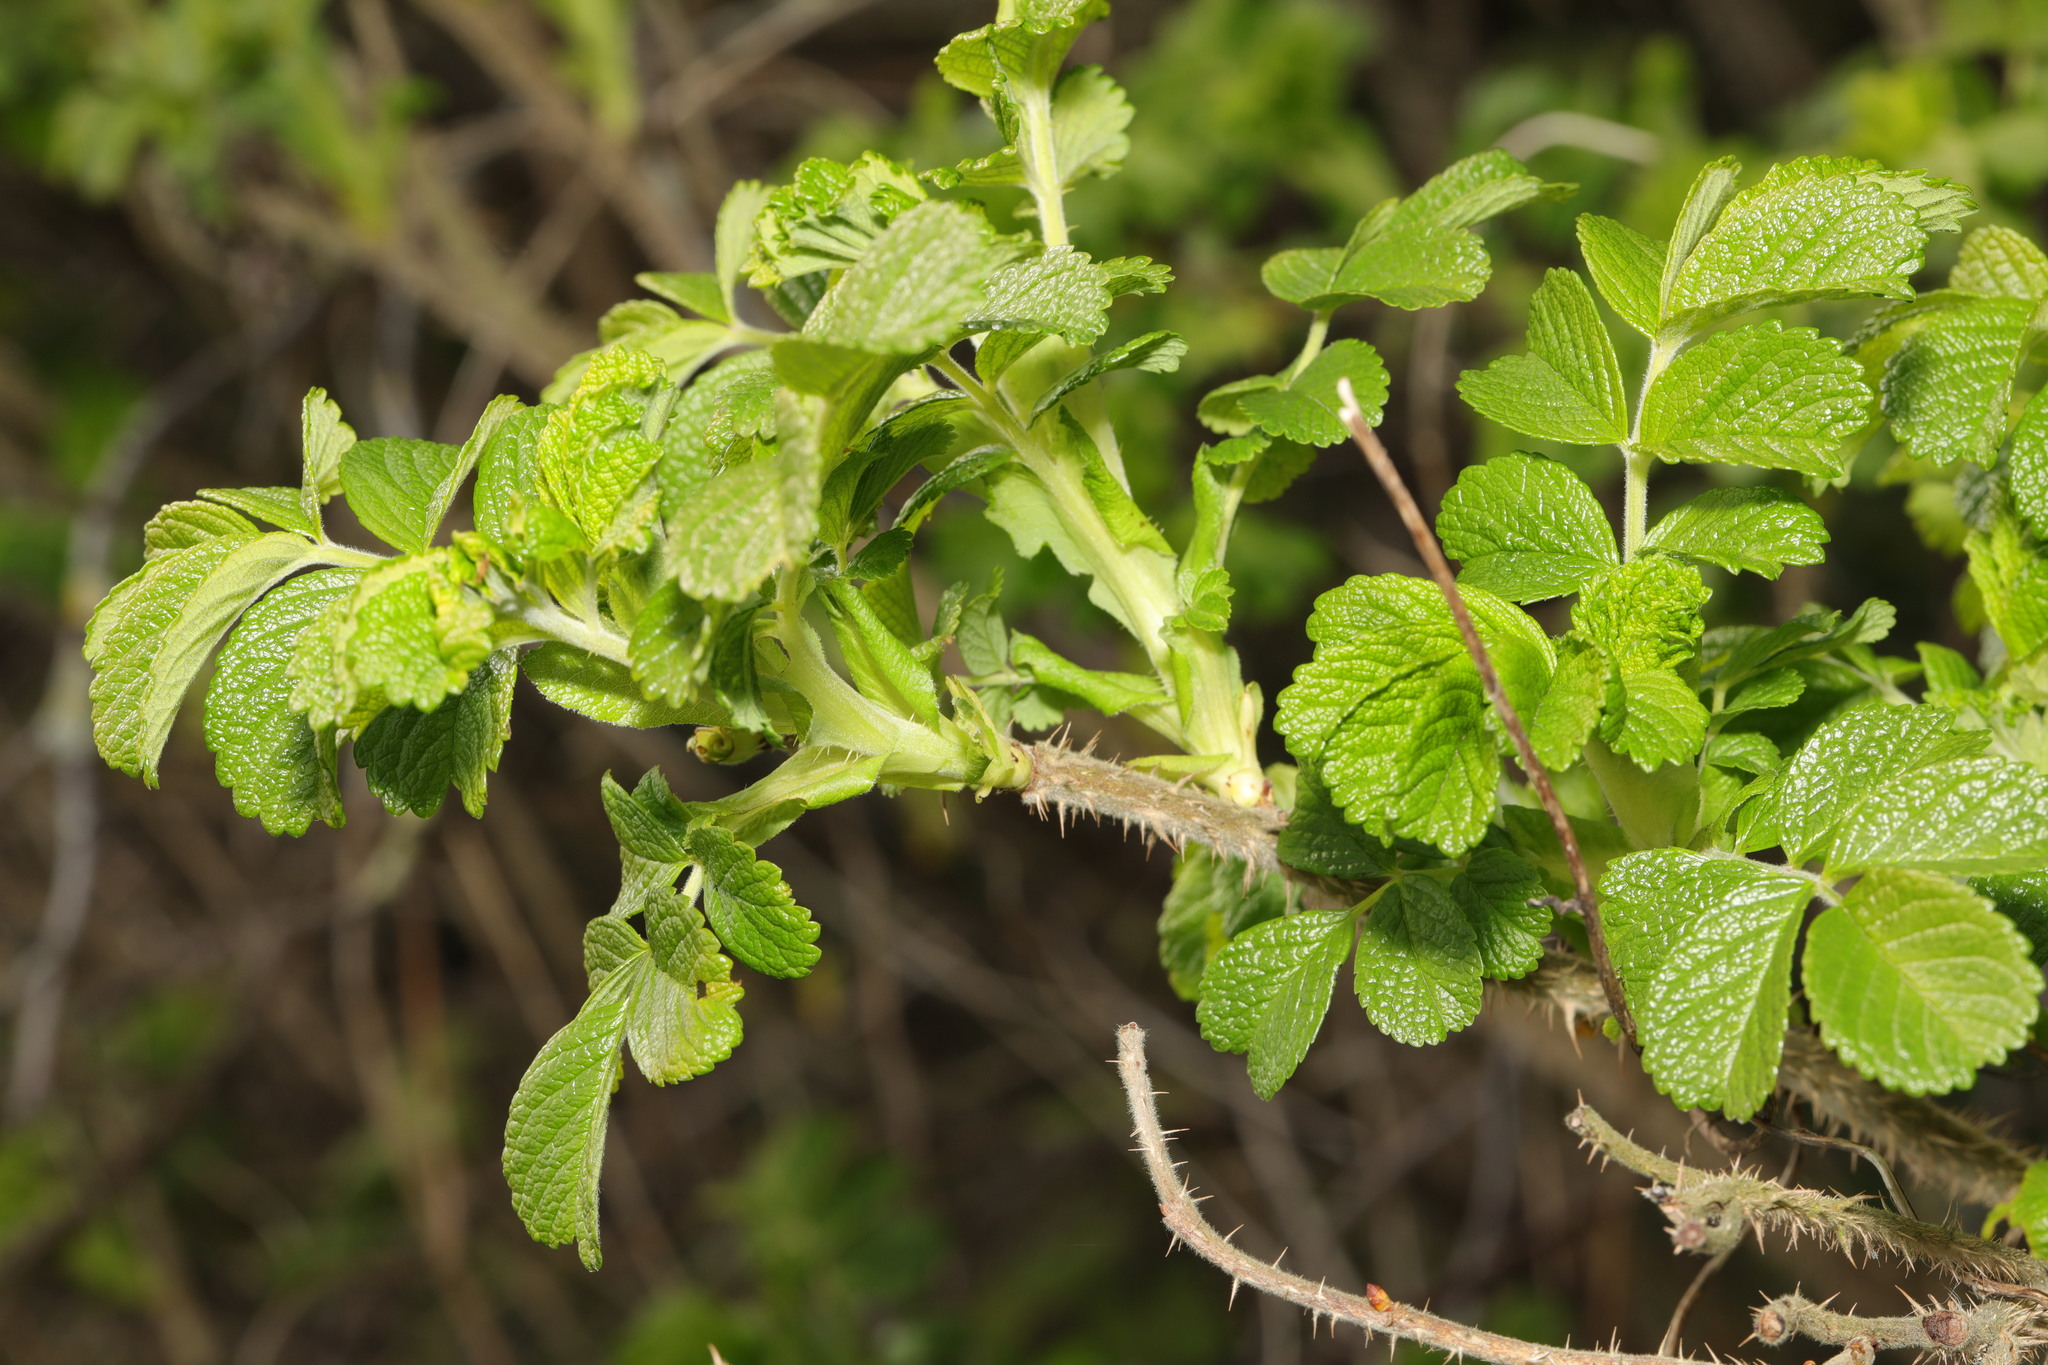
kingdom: Plantae
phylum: Tracheophyta
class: Magnoliopsida
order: Rosales
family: Rosaceae
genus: Rosa
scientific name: Rosa rugosa
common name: Japanese rose
